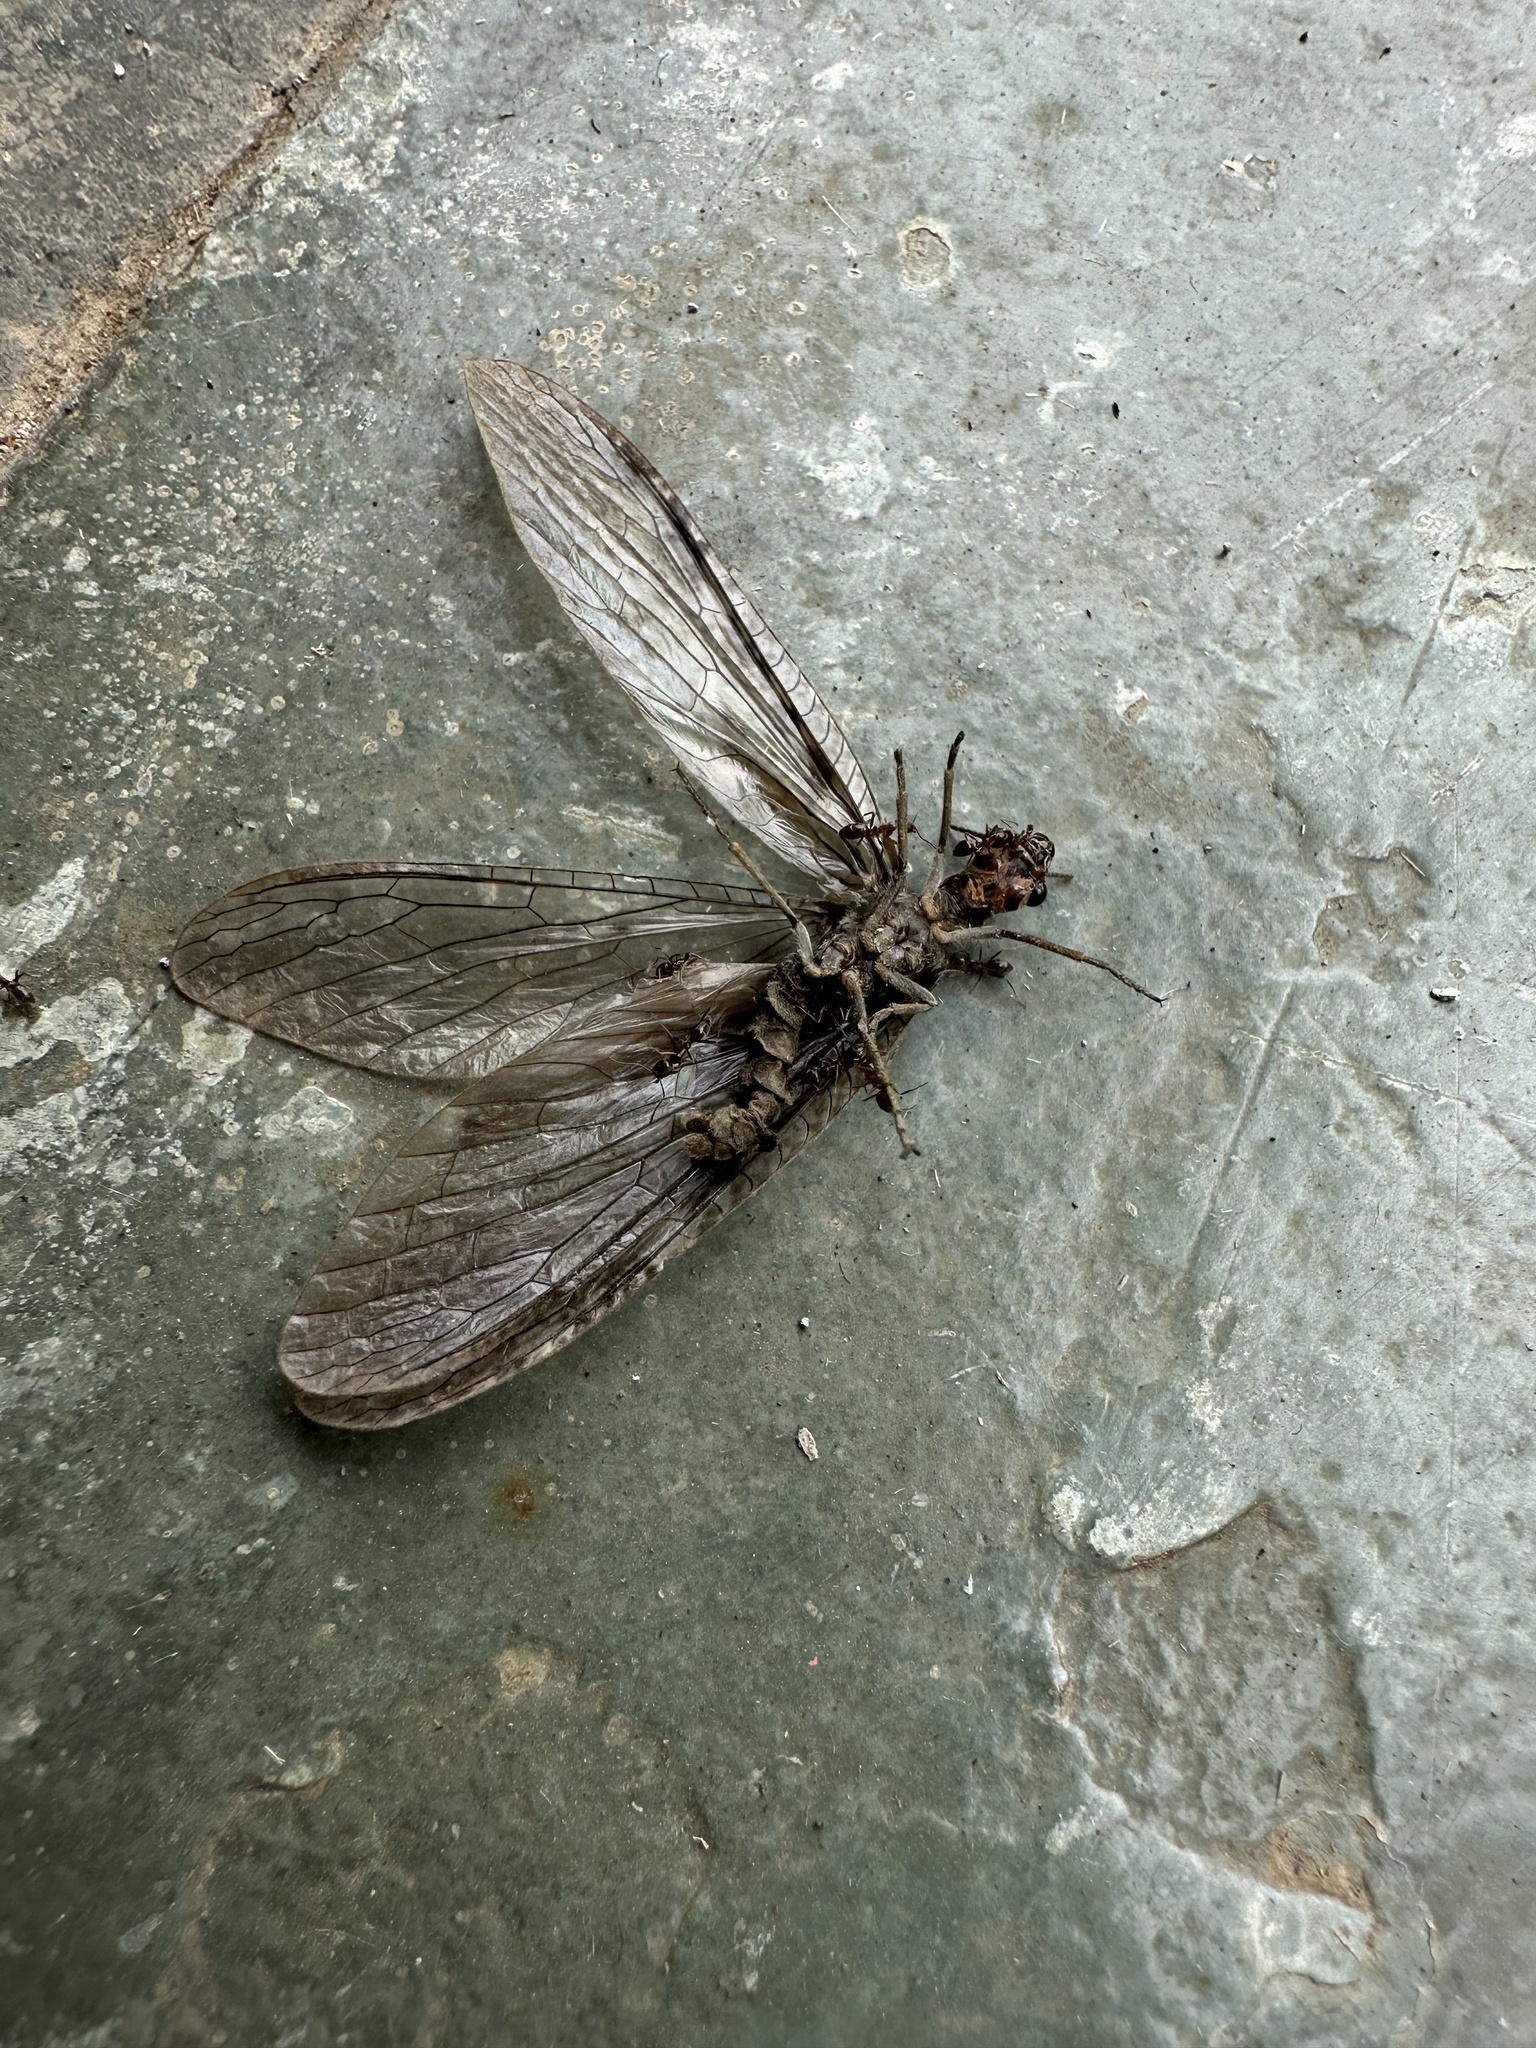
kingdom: Animalia
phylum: Arthropoda
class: Insecta
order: Megaloptera
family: Corydalidae
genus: Archichauliodes
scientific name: Archichauliodes chilensis
